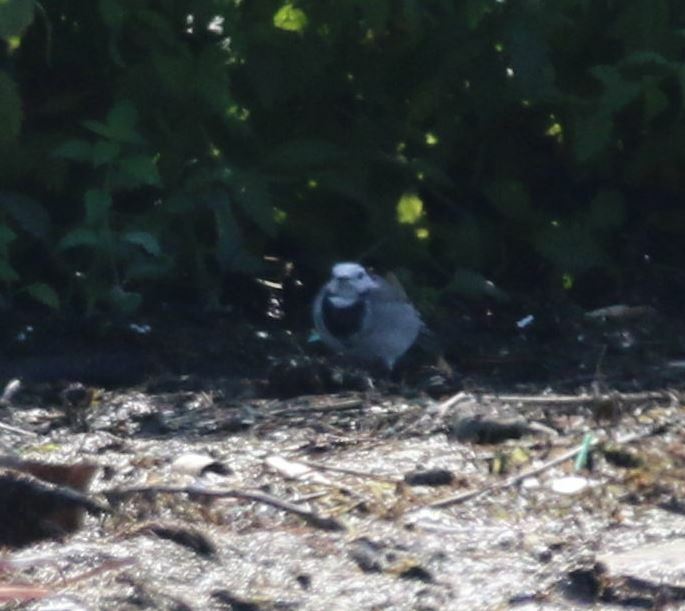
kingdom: Animalia
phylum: Chordata
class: Aves
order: Passeriformes
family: Motacillidae
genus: Motacilla
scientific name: Motacilla alba
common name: White wagtail
